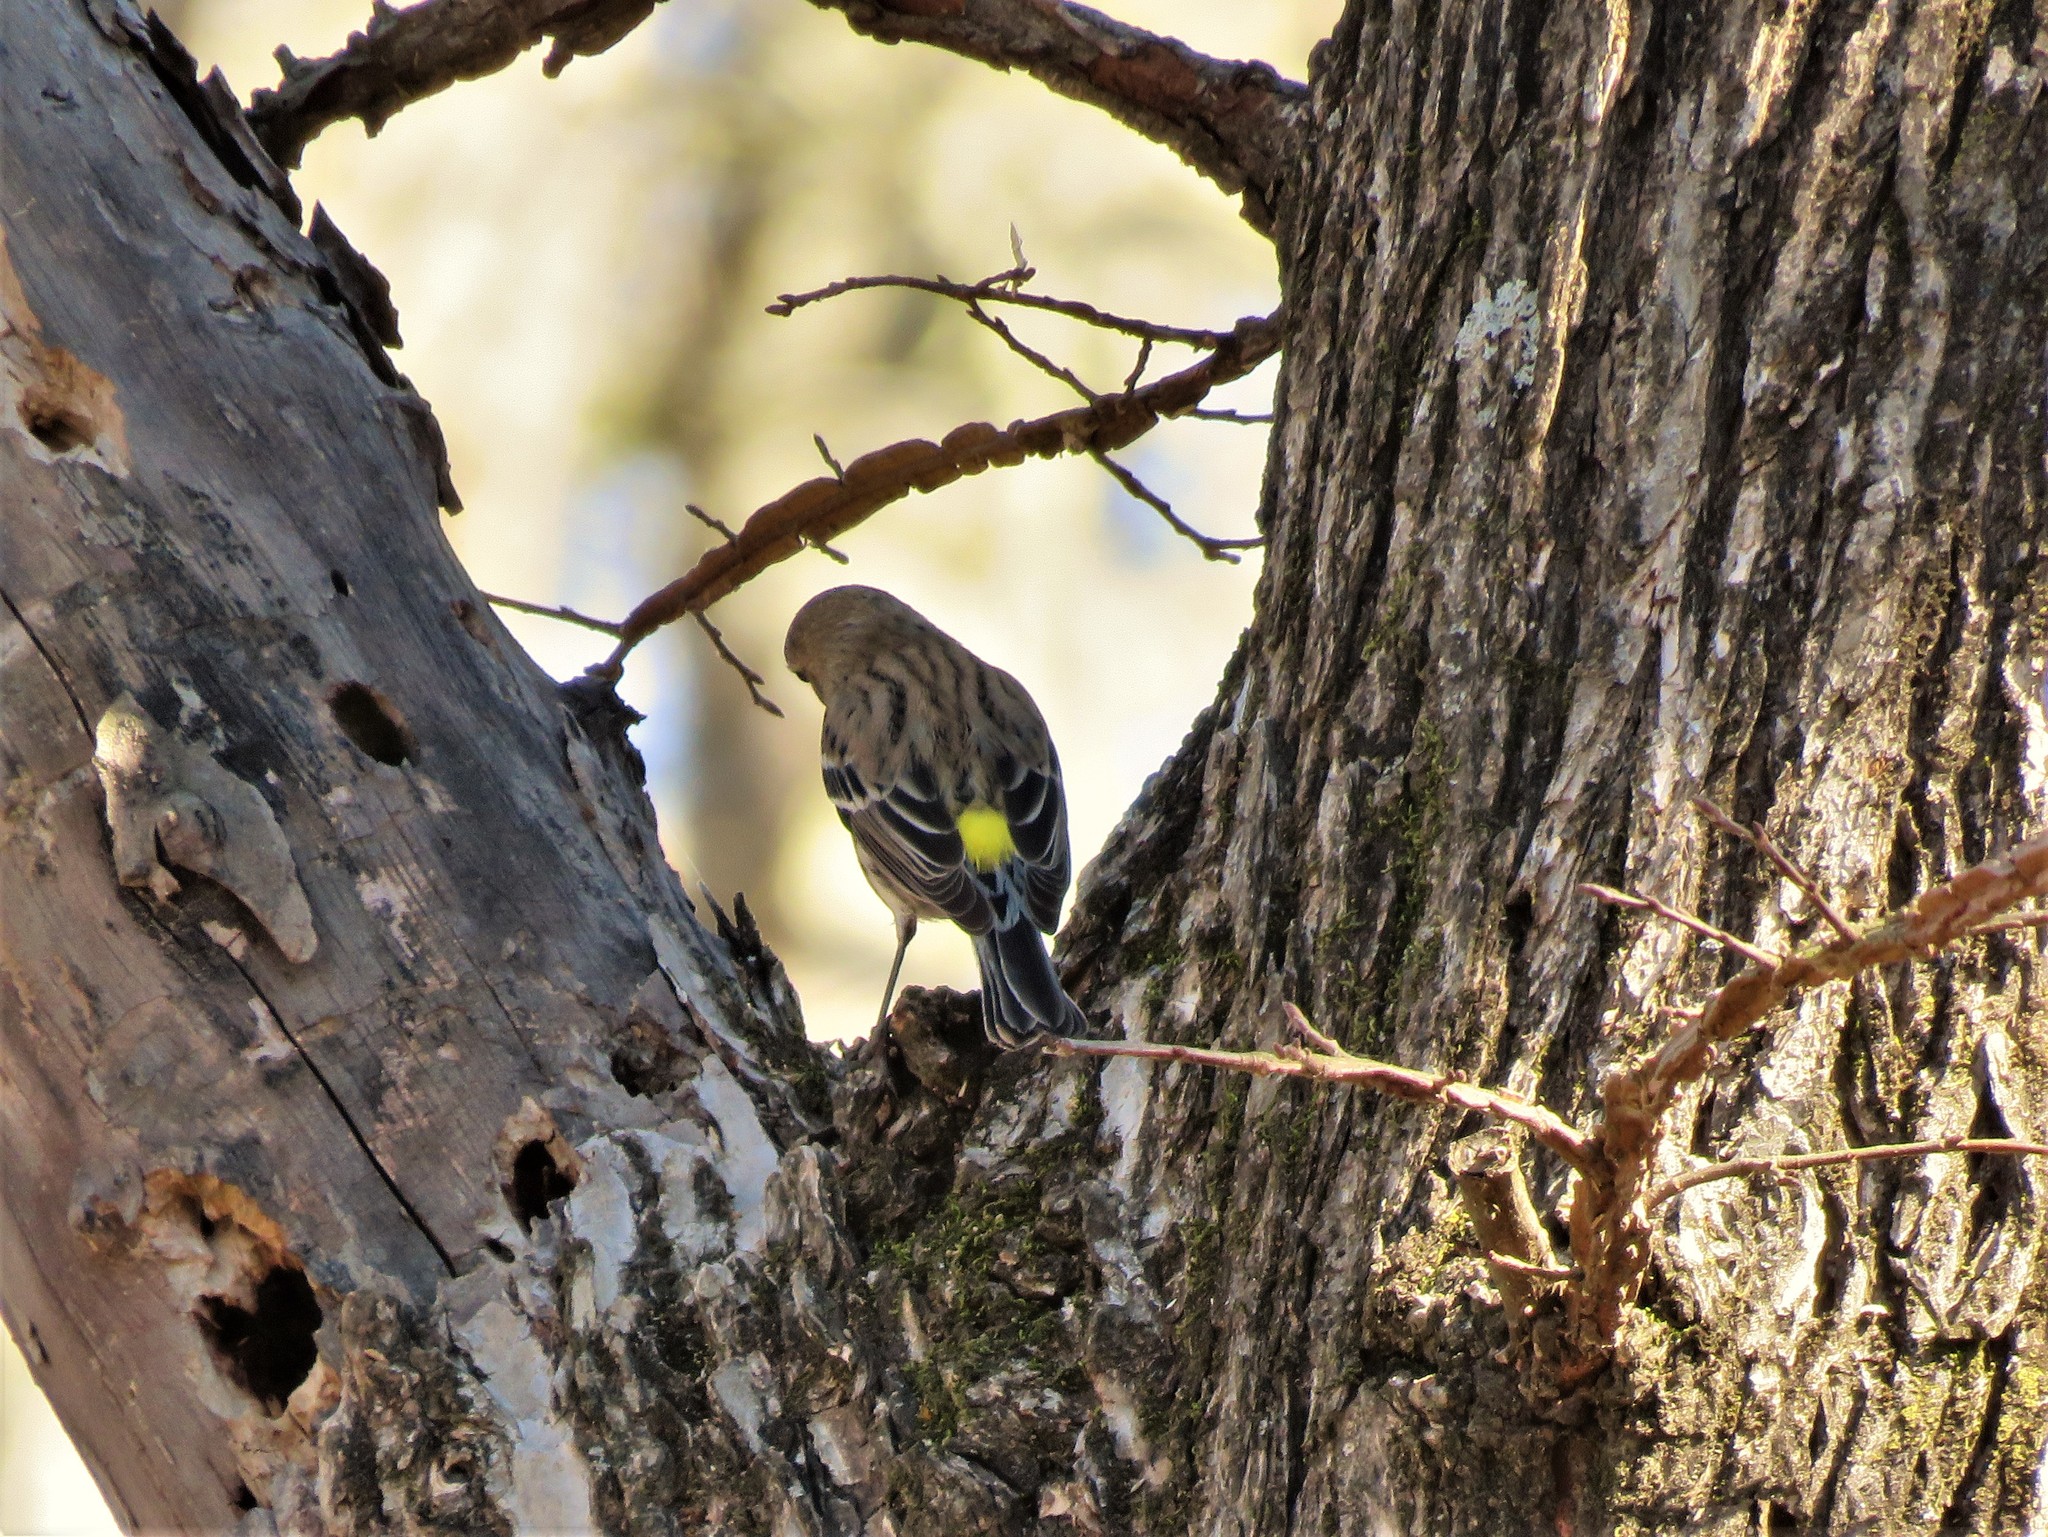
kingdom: Animalia
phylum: Chordata
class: Aves
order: Passeriformes
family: Parulidae
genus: Setophaga
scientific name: Setophaga coronata
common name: Myrtle warbler
